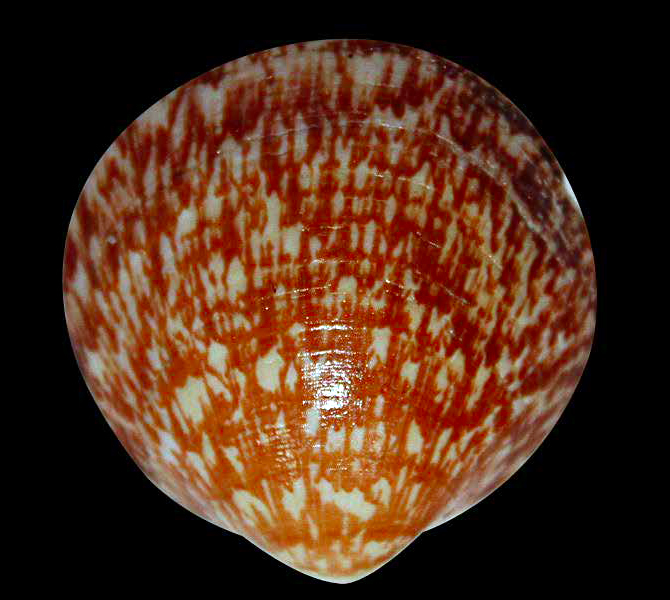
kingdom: Animalia
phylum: Mollusca
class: Bivalvia
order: Arcida
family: Glycymerididae
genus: Glycymeris
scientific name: Glycymeris glycymeris
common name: Dog-cockle
